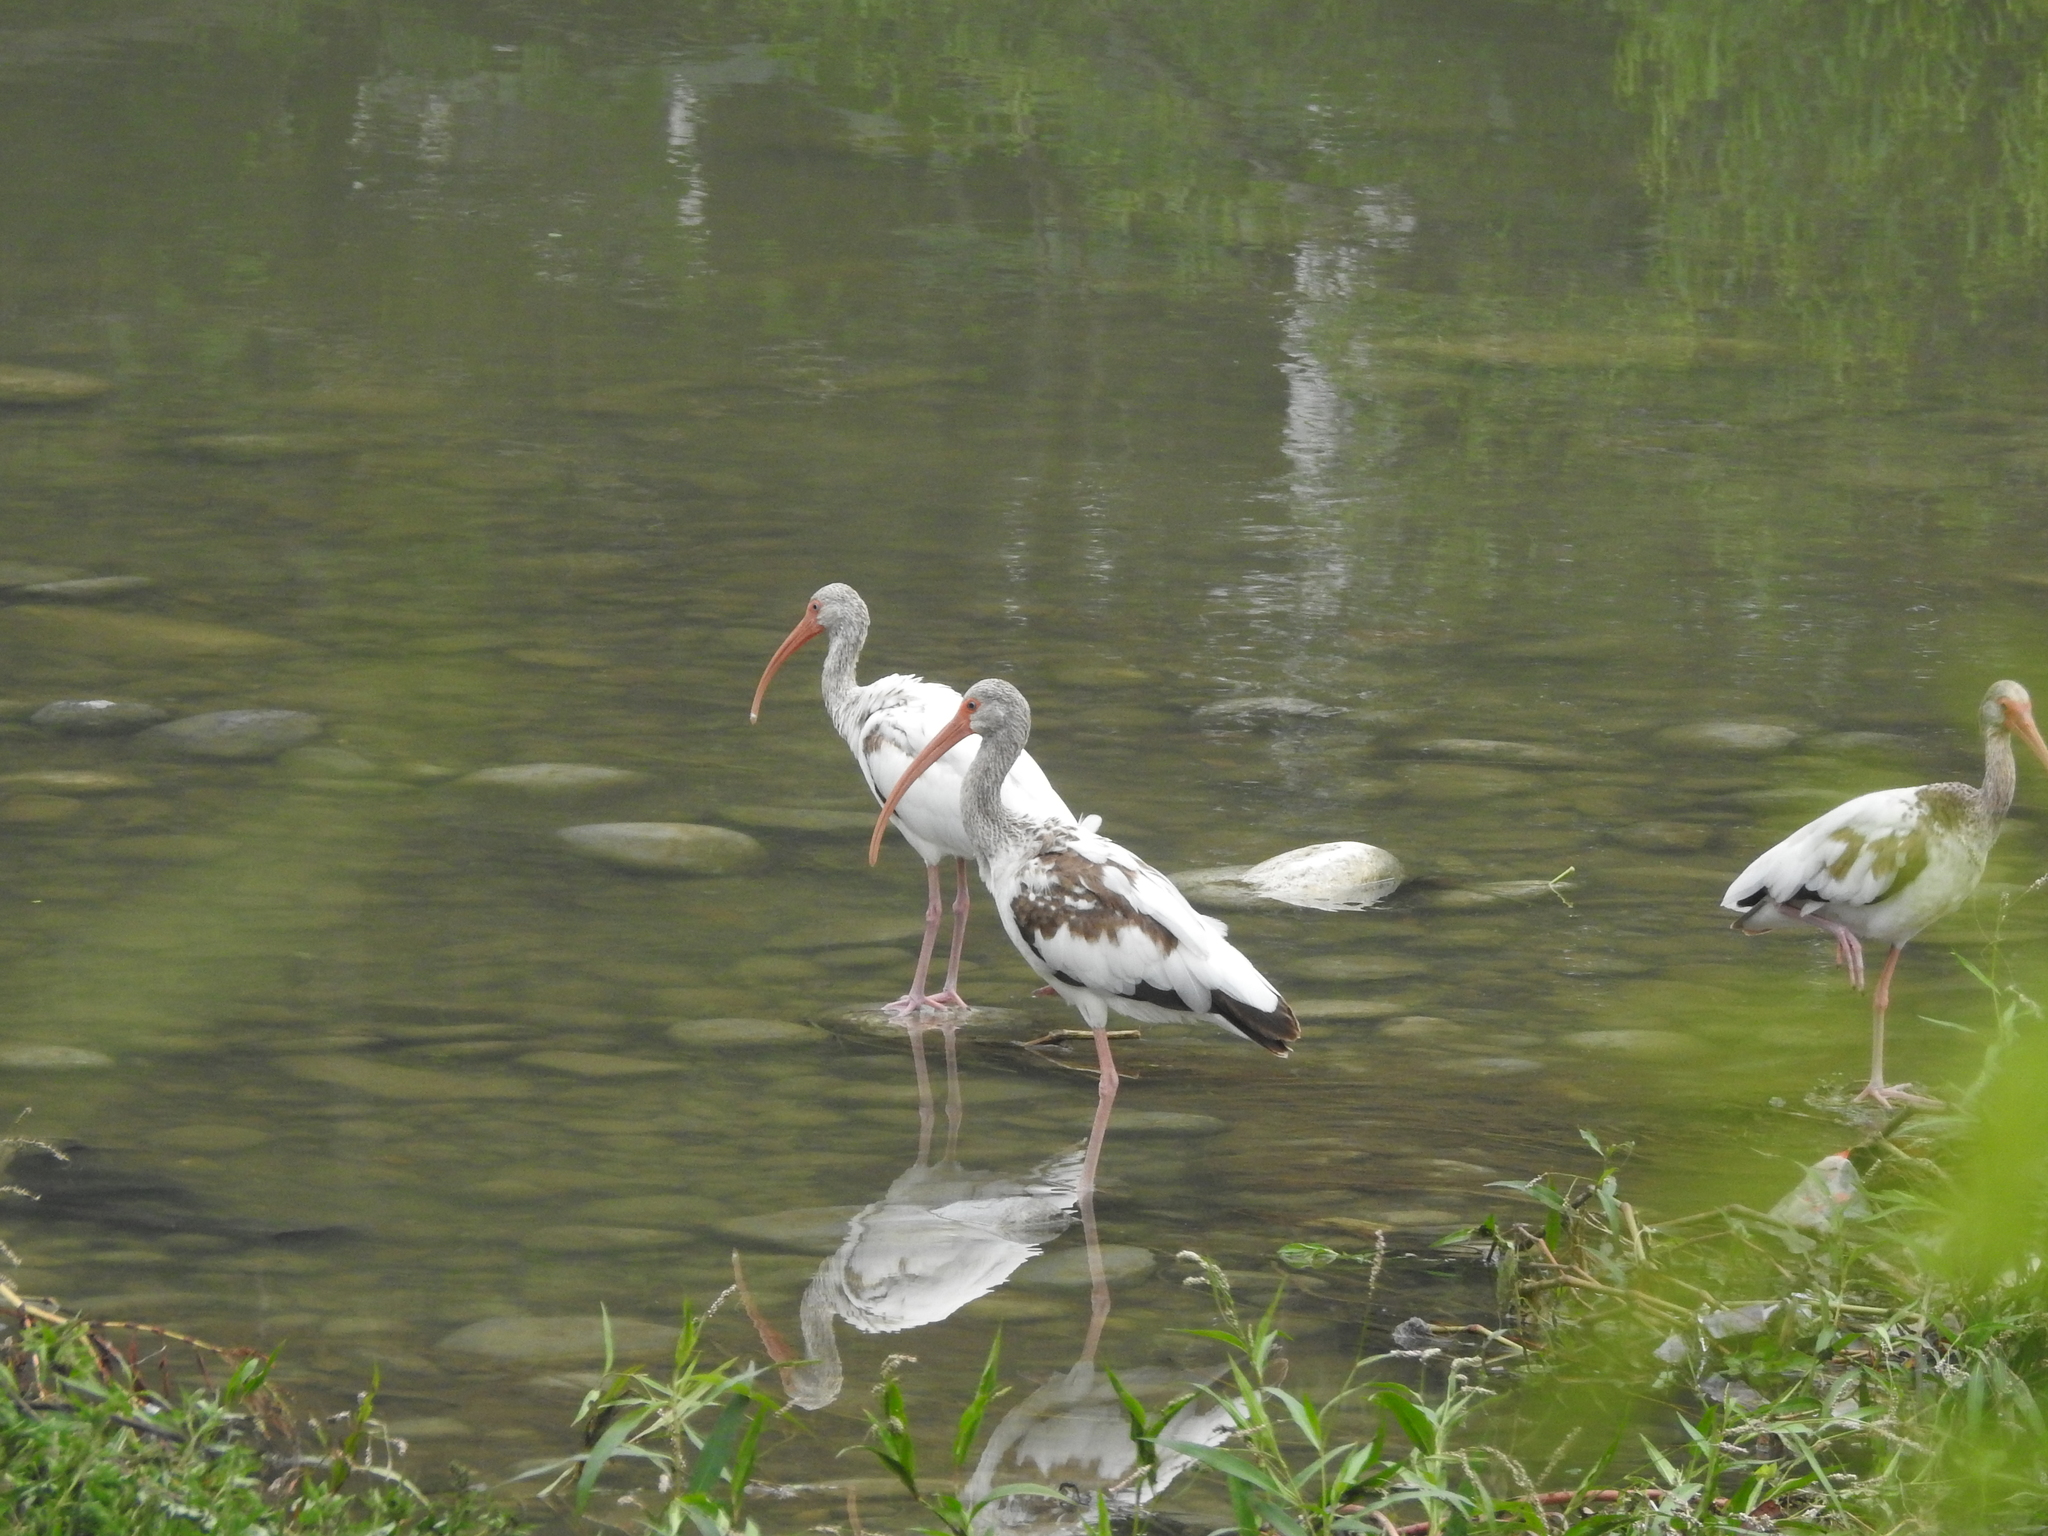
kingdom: Animalia
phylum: Chordata
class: Aves
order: Pelecaniformes
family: Threskiornithidae
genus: Eudocimus
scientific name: Eudocimus albus
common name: White ibis
